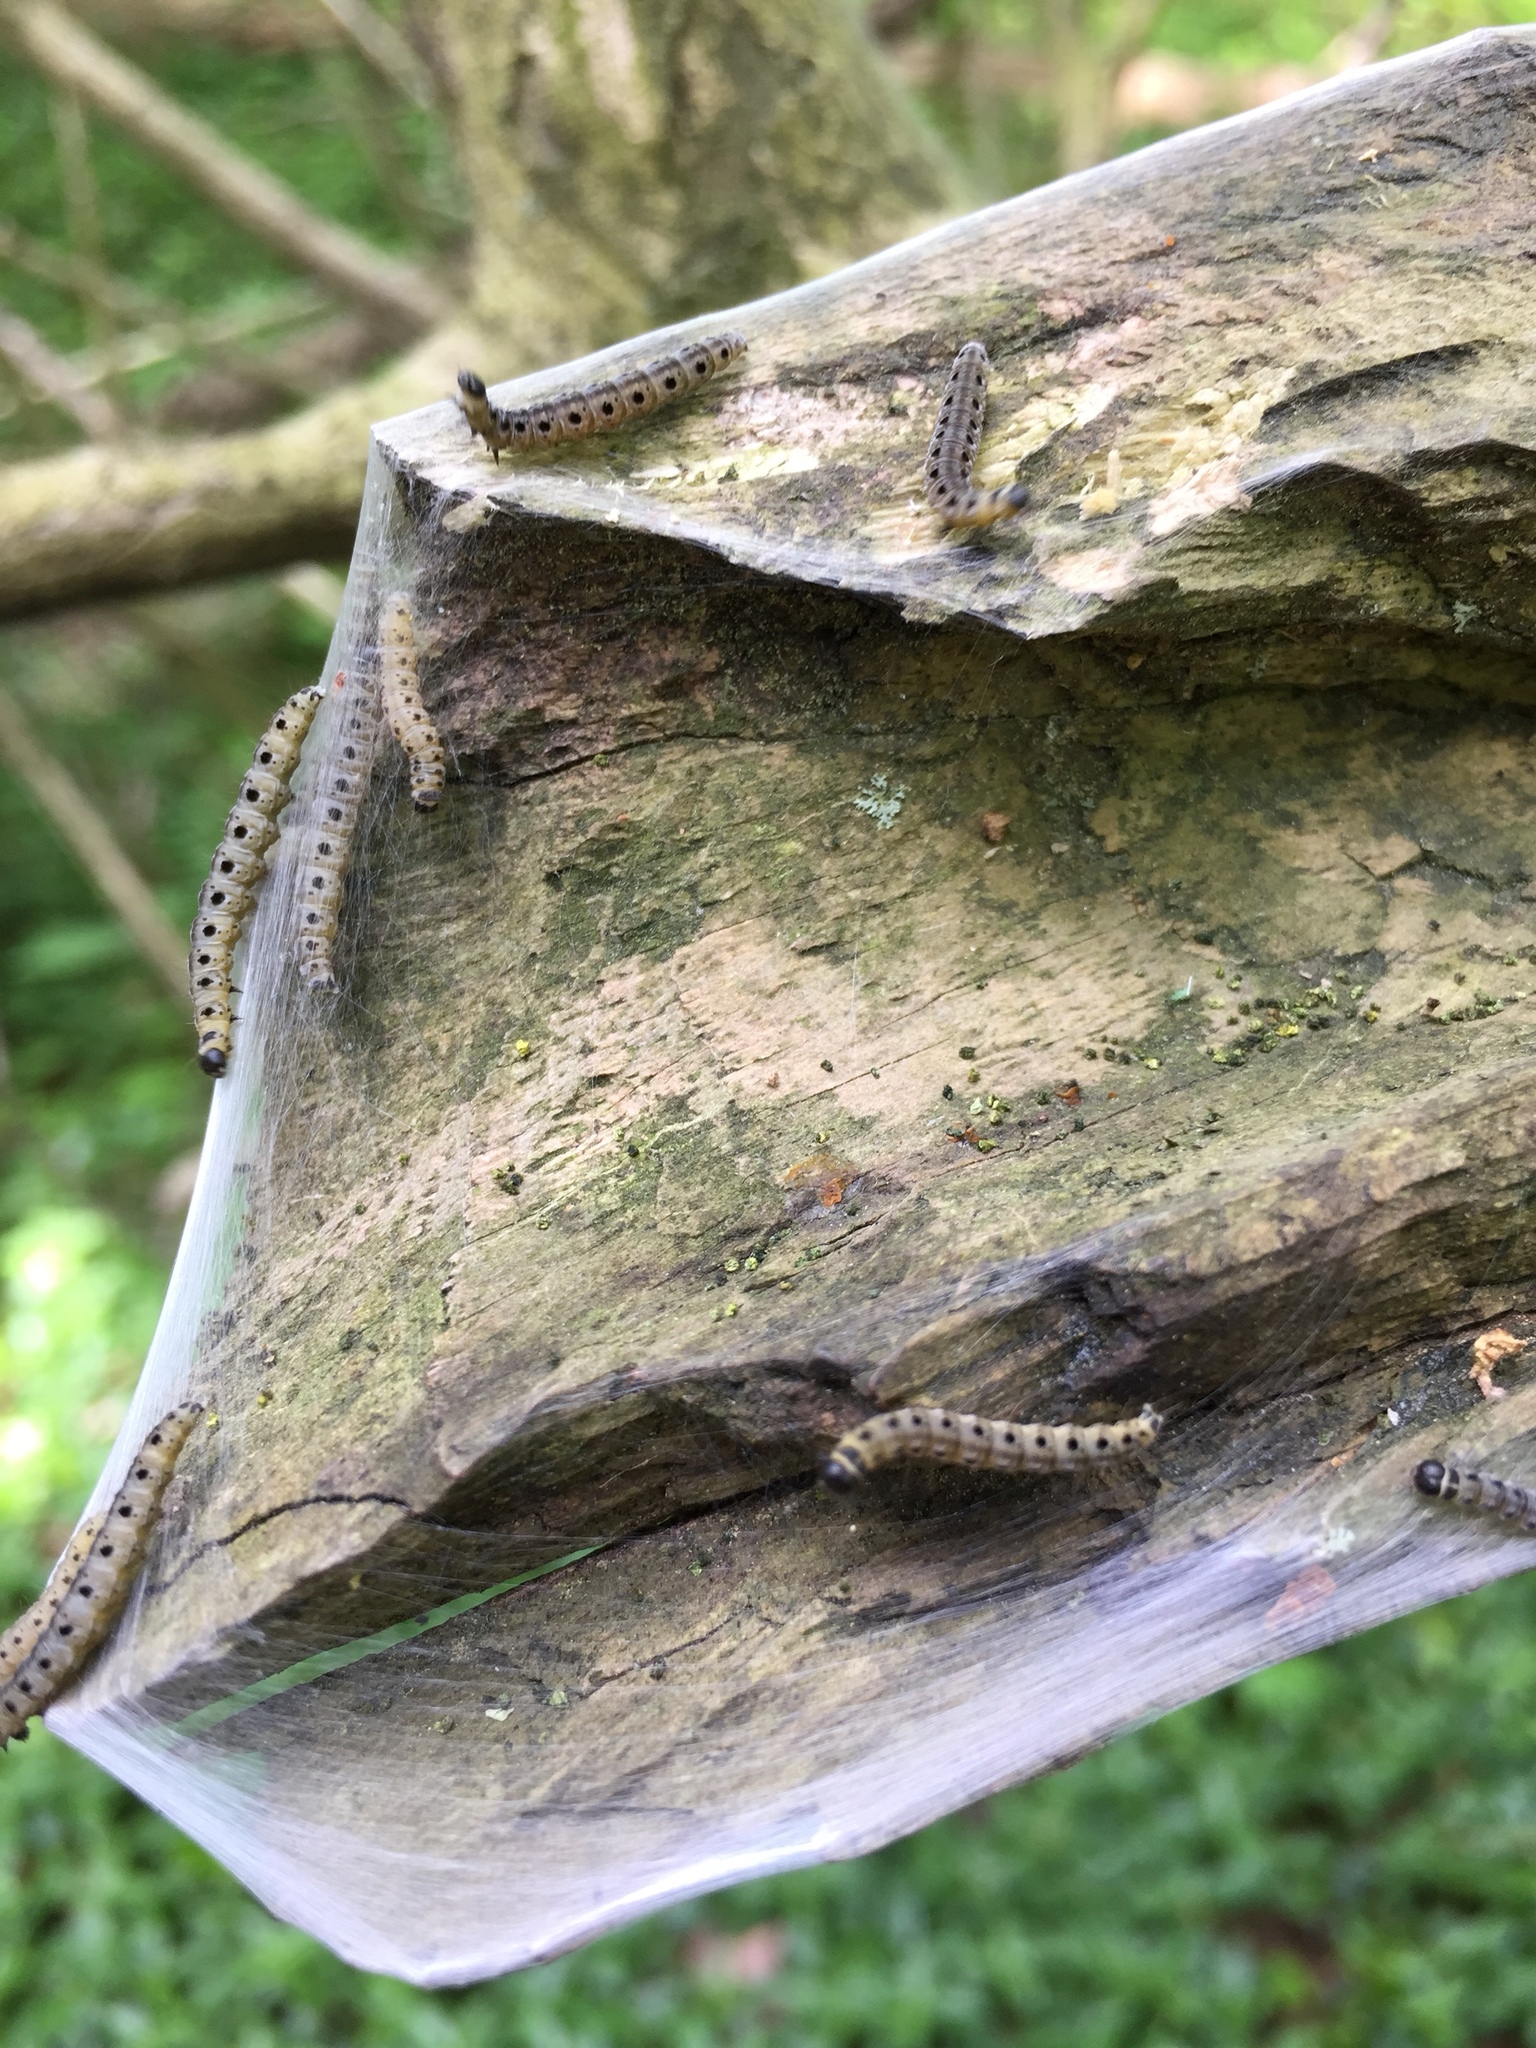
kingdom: Animalia
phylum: Arthropoda
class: Insecta
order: Lepidoptera
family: Yponomeutidae
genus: Yponomeuta
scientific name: Yponomeuta cagnagellus
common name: Spindle ermine
